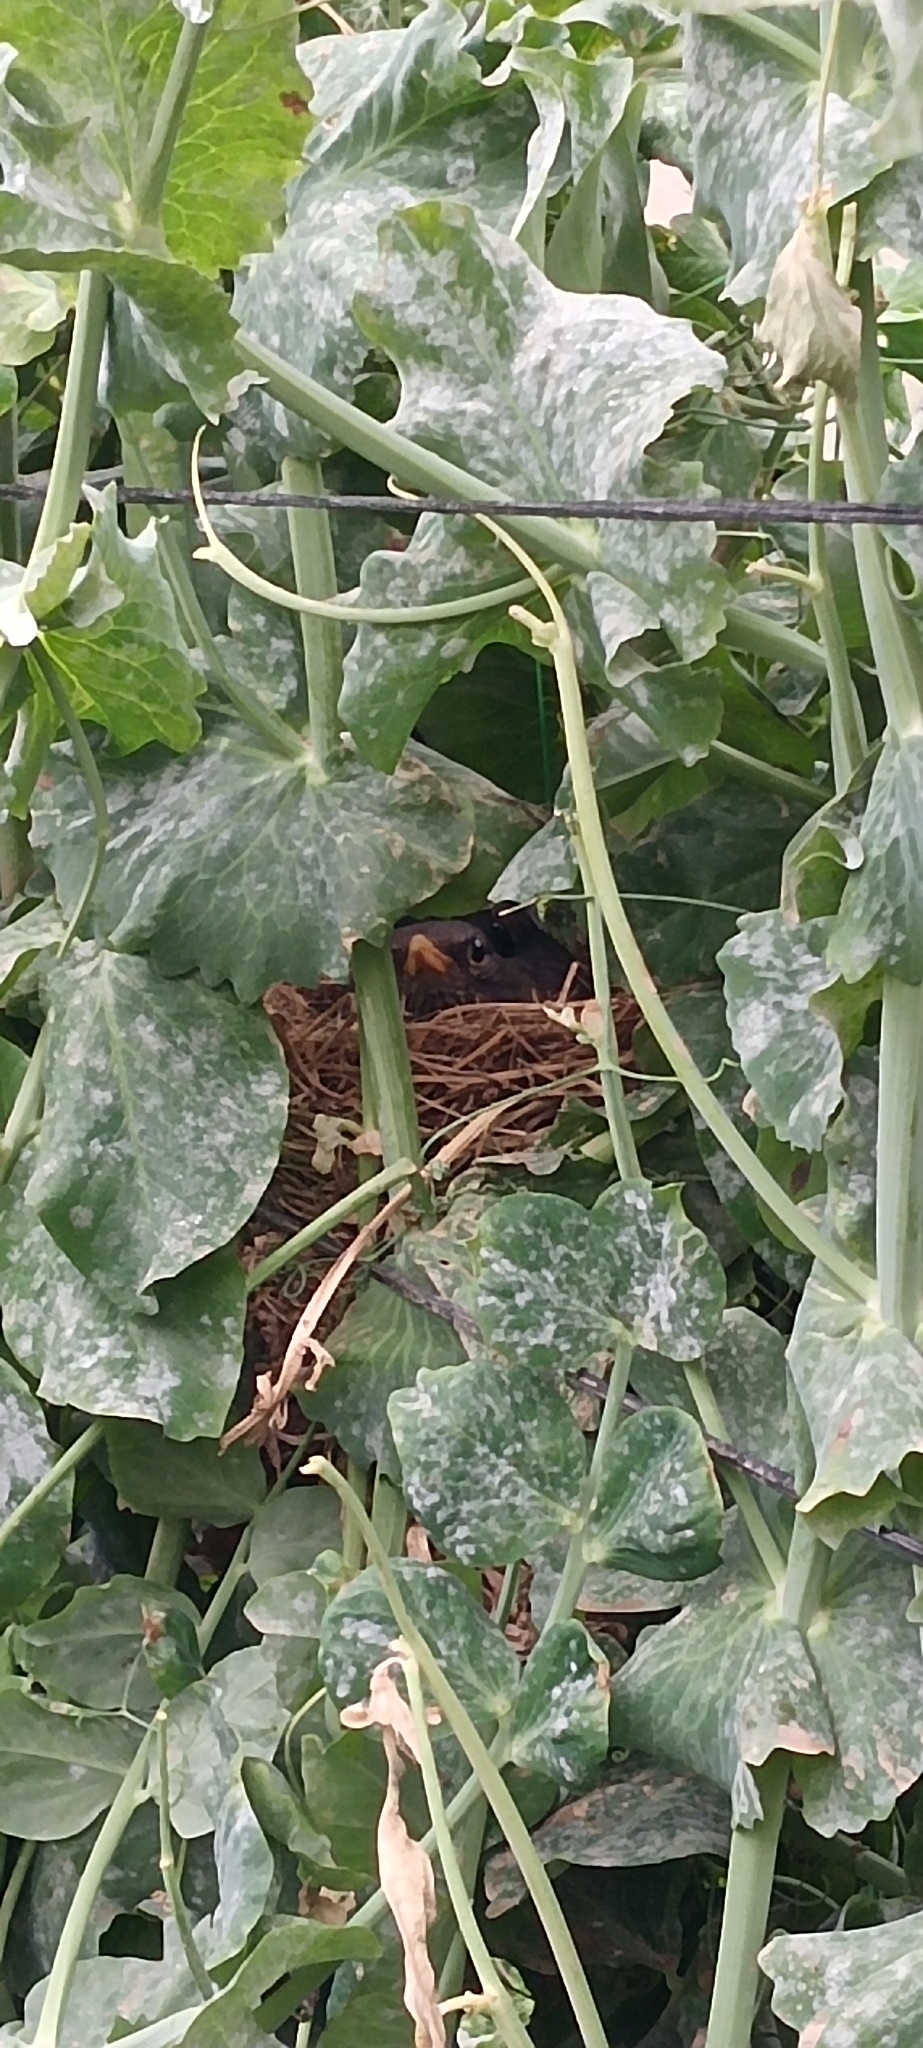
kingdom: Animalia
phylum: Chordata
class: Aves
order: Passeriformes
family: Turdidae
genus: Turdus
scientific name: Turdus merula
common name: Common blackbird
